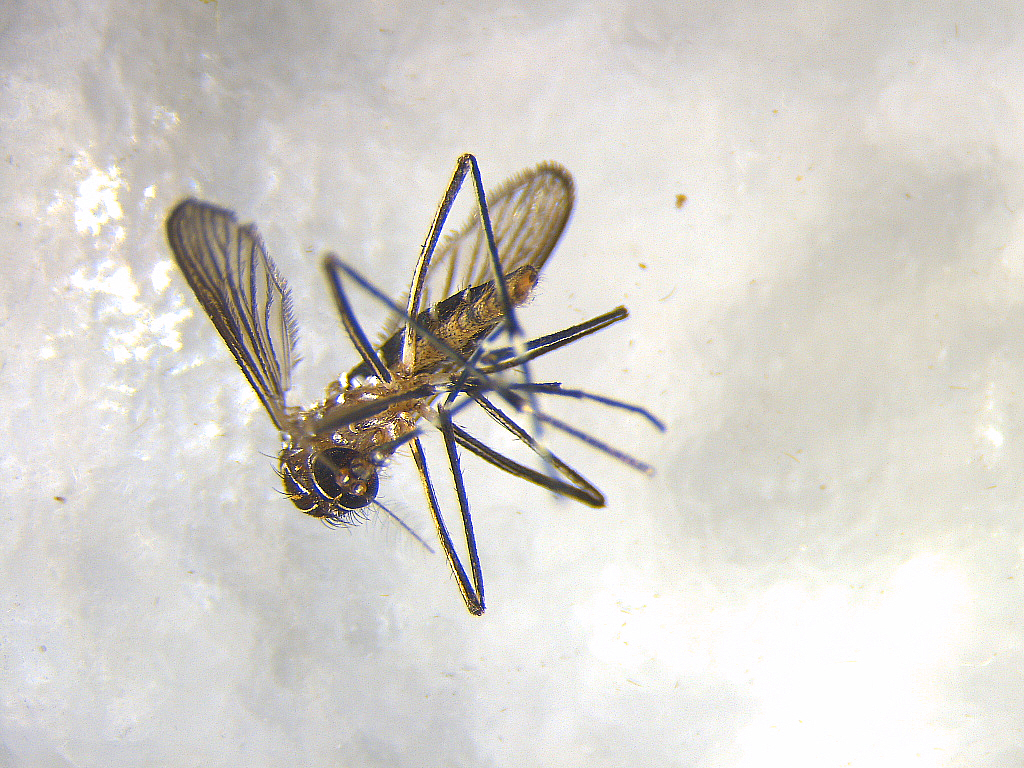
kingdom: Animalia
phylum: Arthropoda
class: Insecta
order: Diptera
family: Culicidae
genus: Aedes
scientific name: Aedes notoscriptus
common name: Australian backyard mosquito
